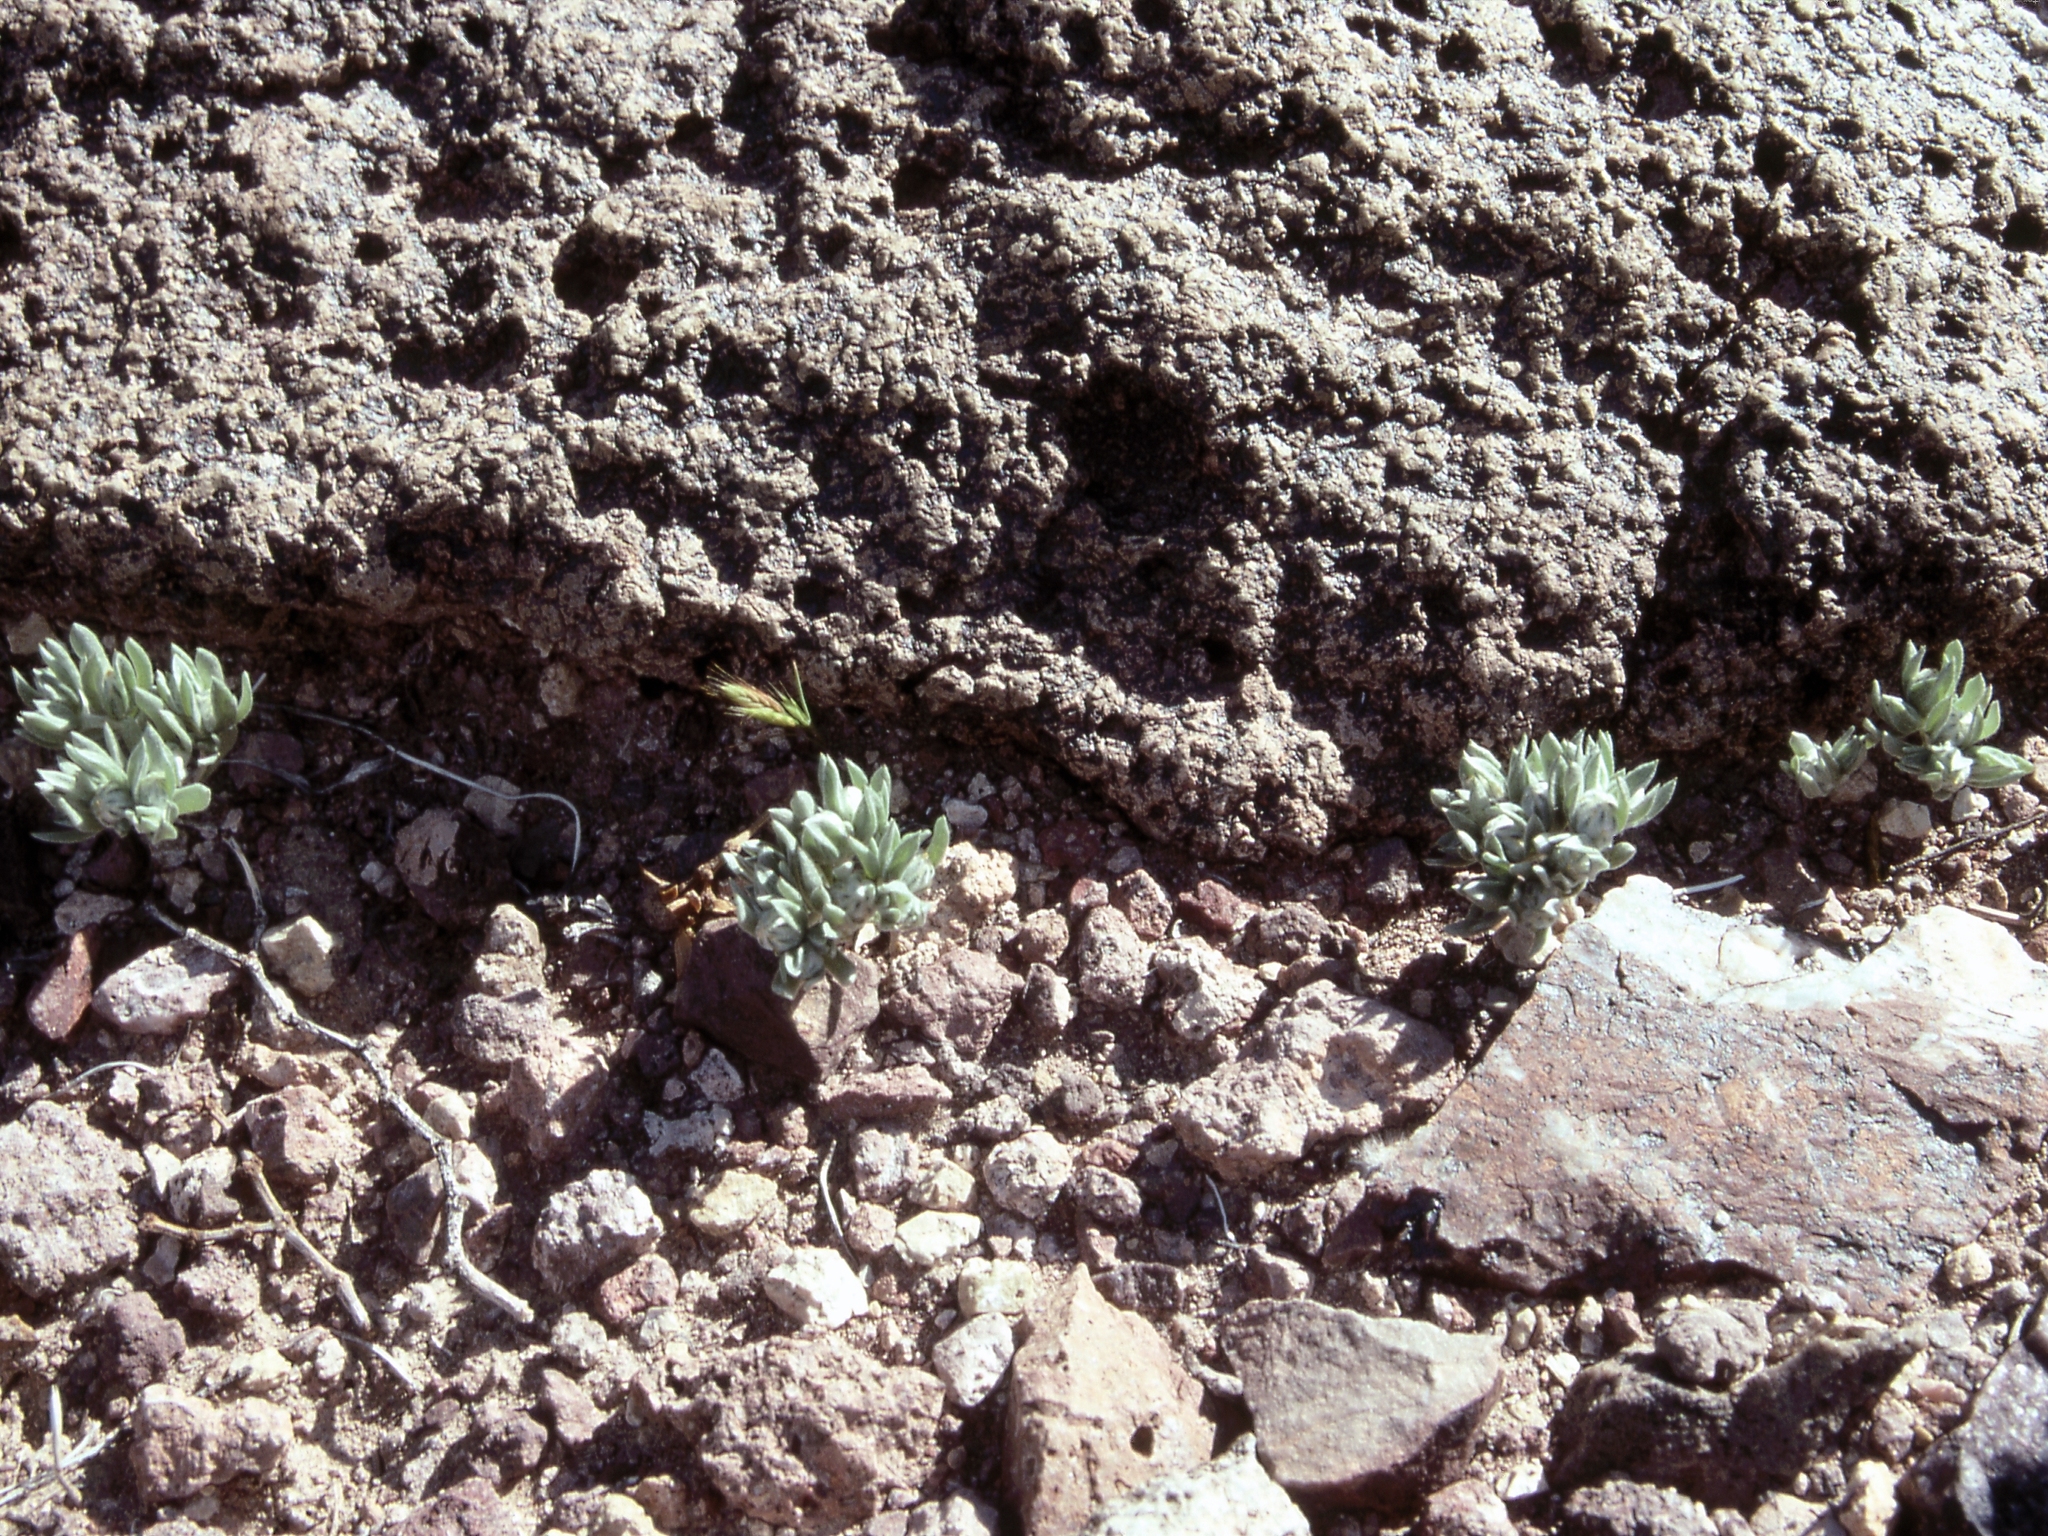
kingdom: Plantae
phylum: Tracheophyta
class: Magnoliopsida
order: Asterales
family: Asteraceae
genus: Stylocline
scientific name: Stylocline intertexta
